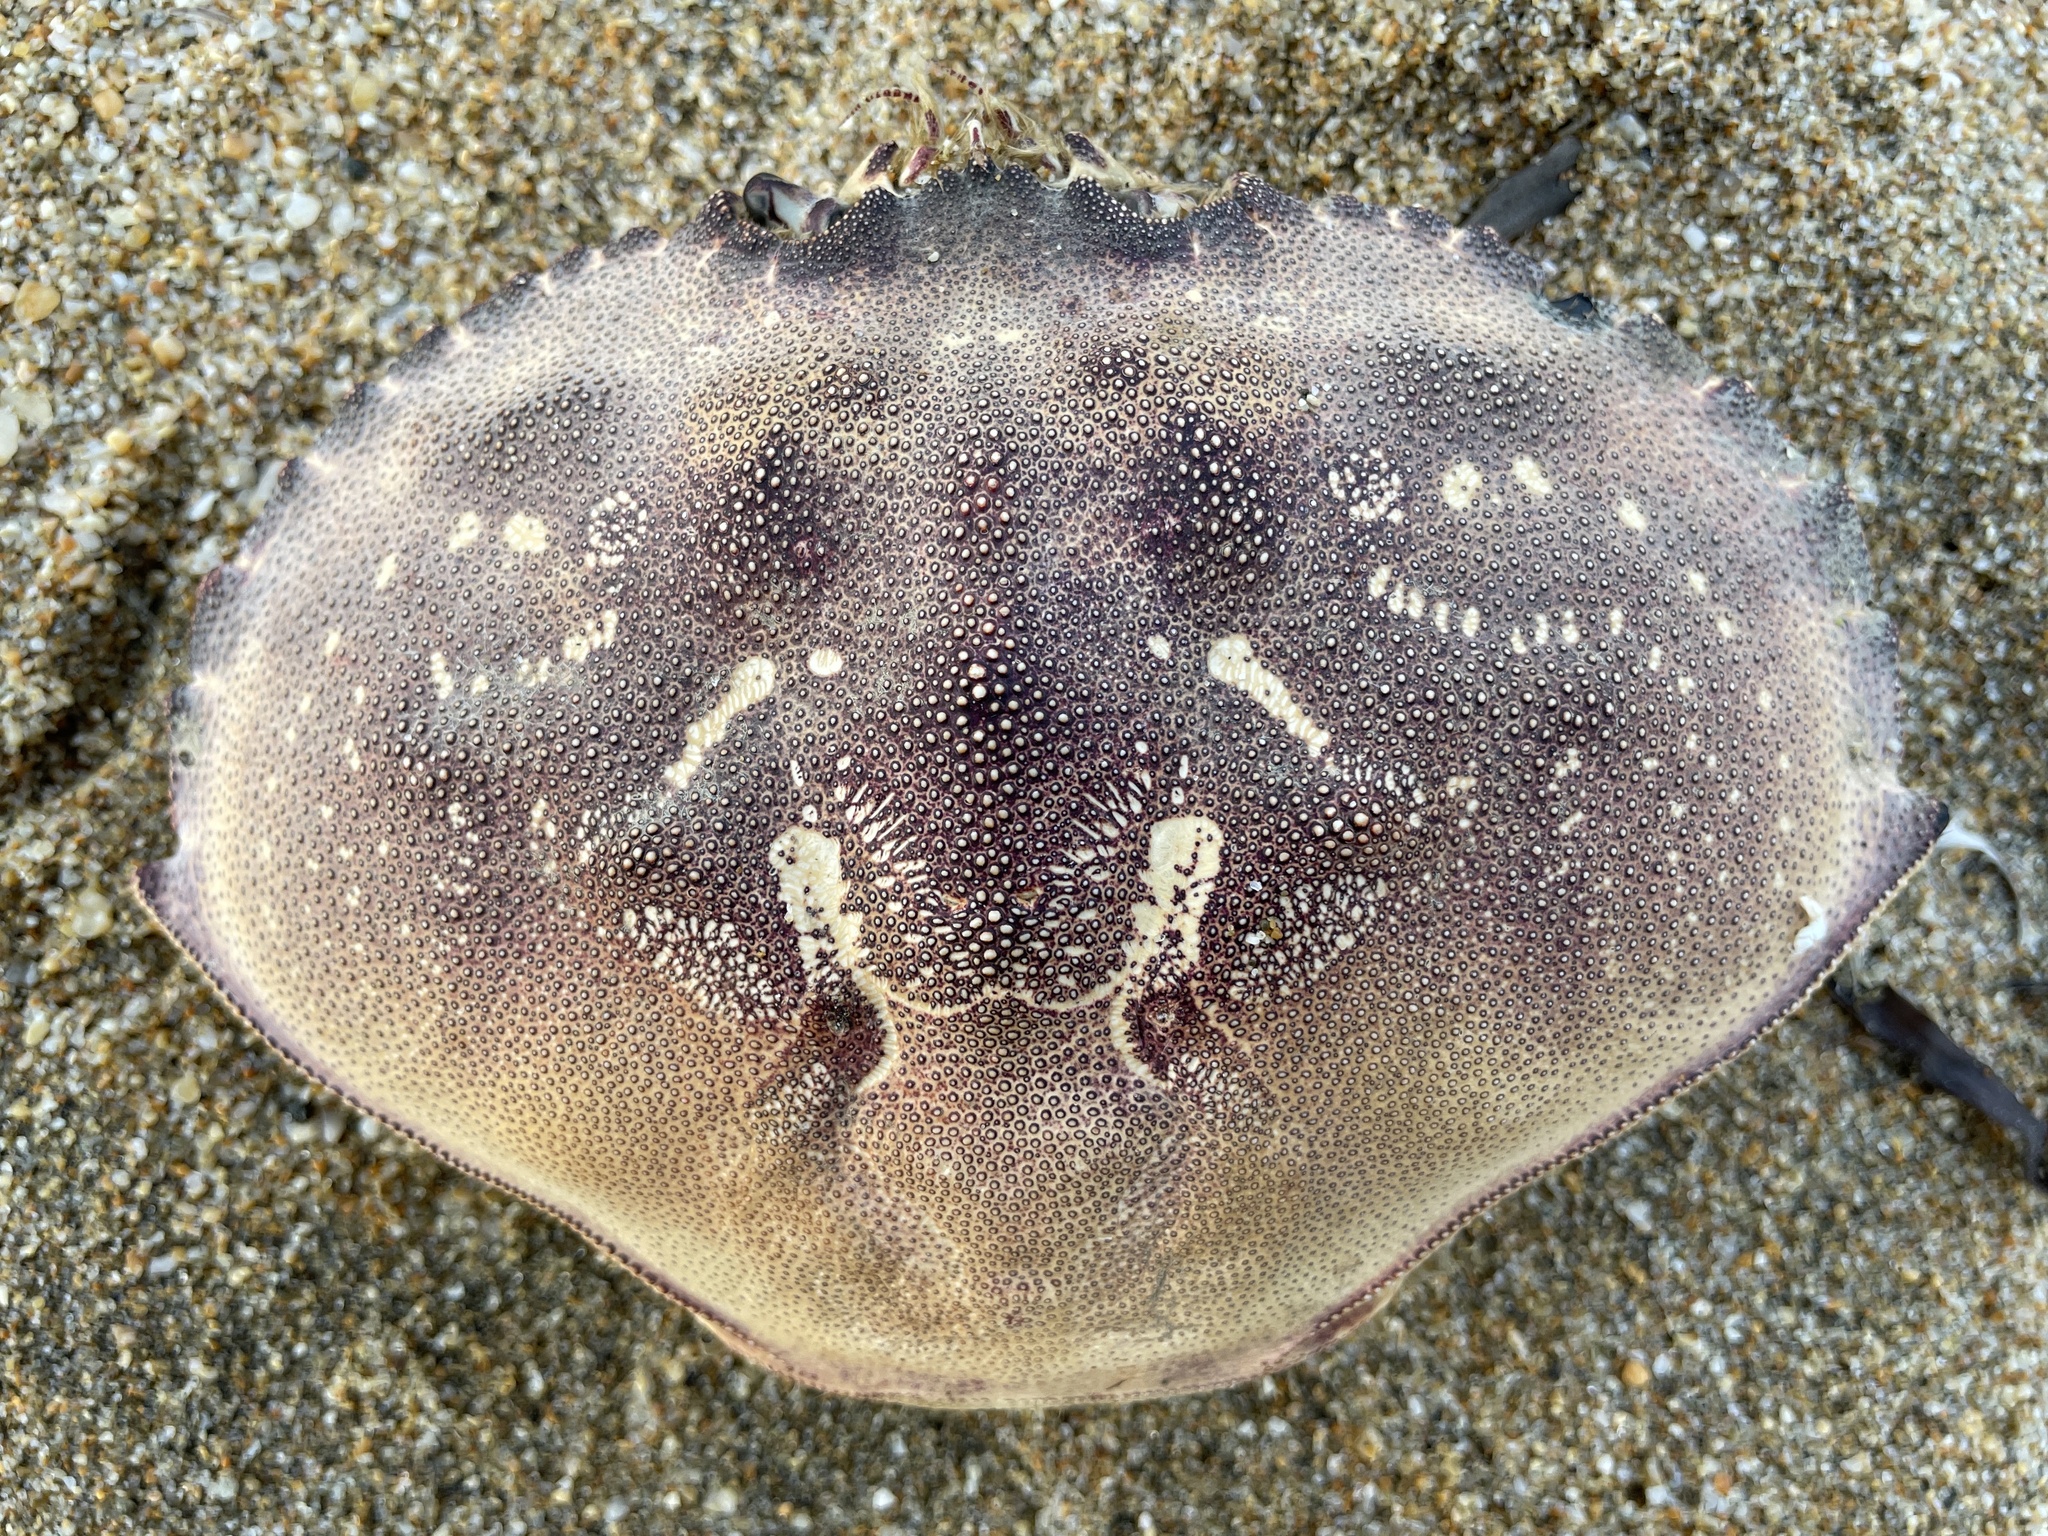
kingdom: Animalia
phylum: Arthropoda
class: Malacostraca
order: Decapoda
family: Cancridae
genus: Metacarcinus
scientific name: Metacarcinus magister
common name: Californian crab
